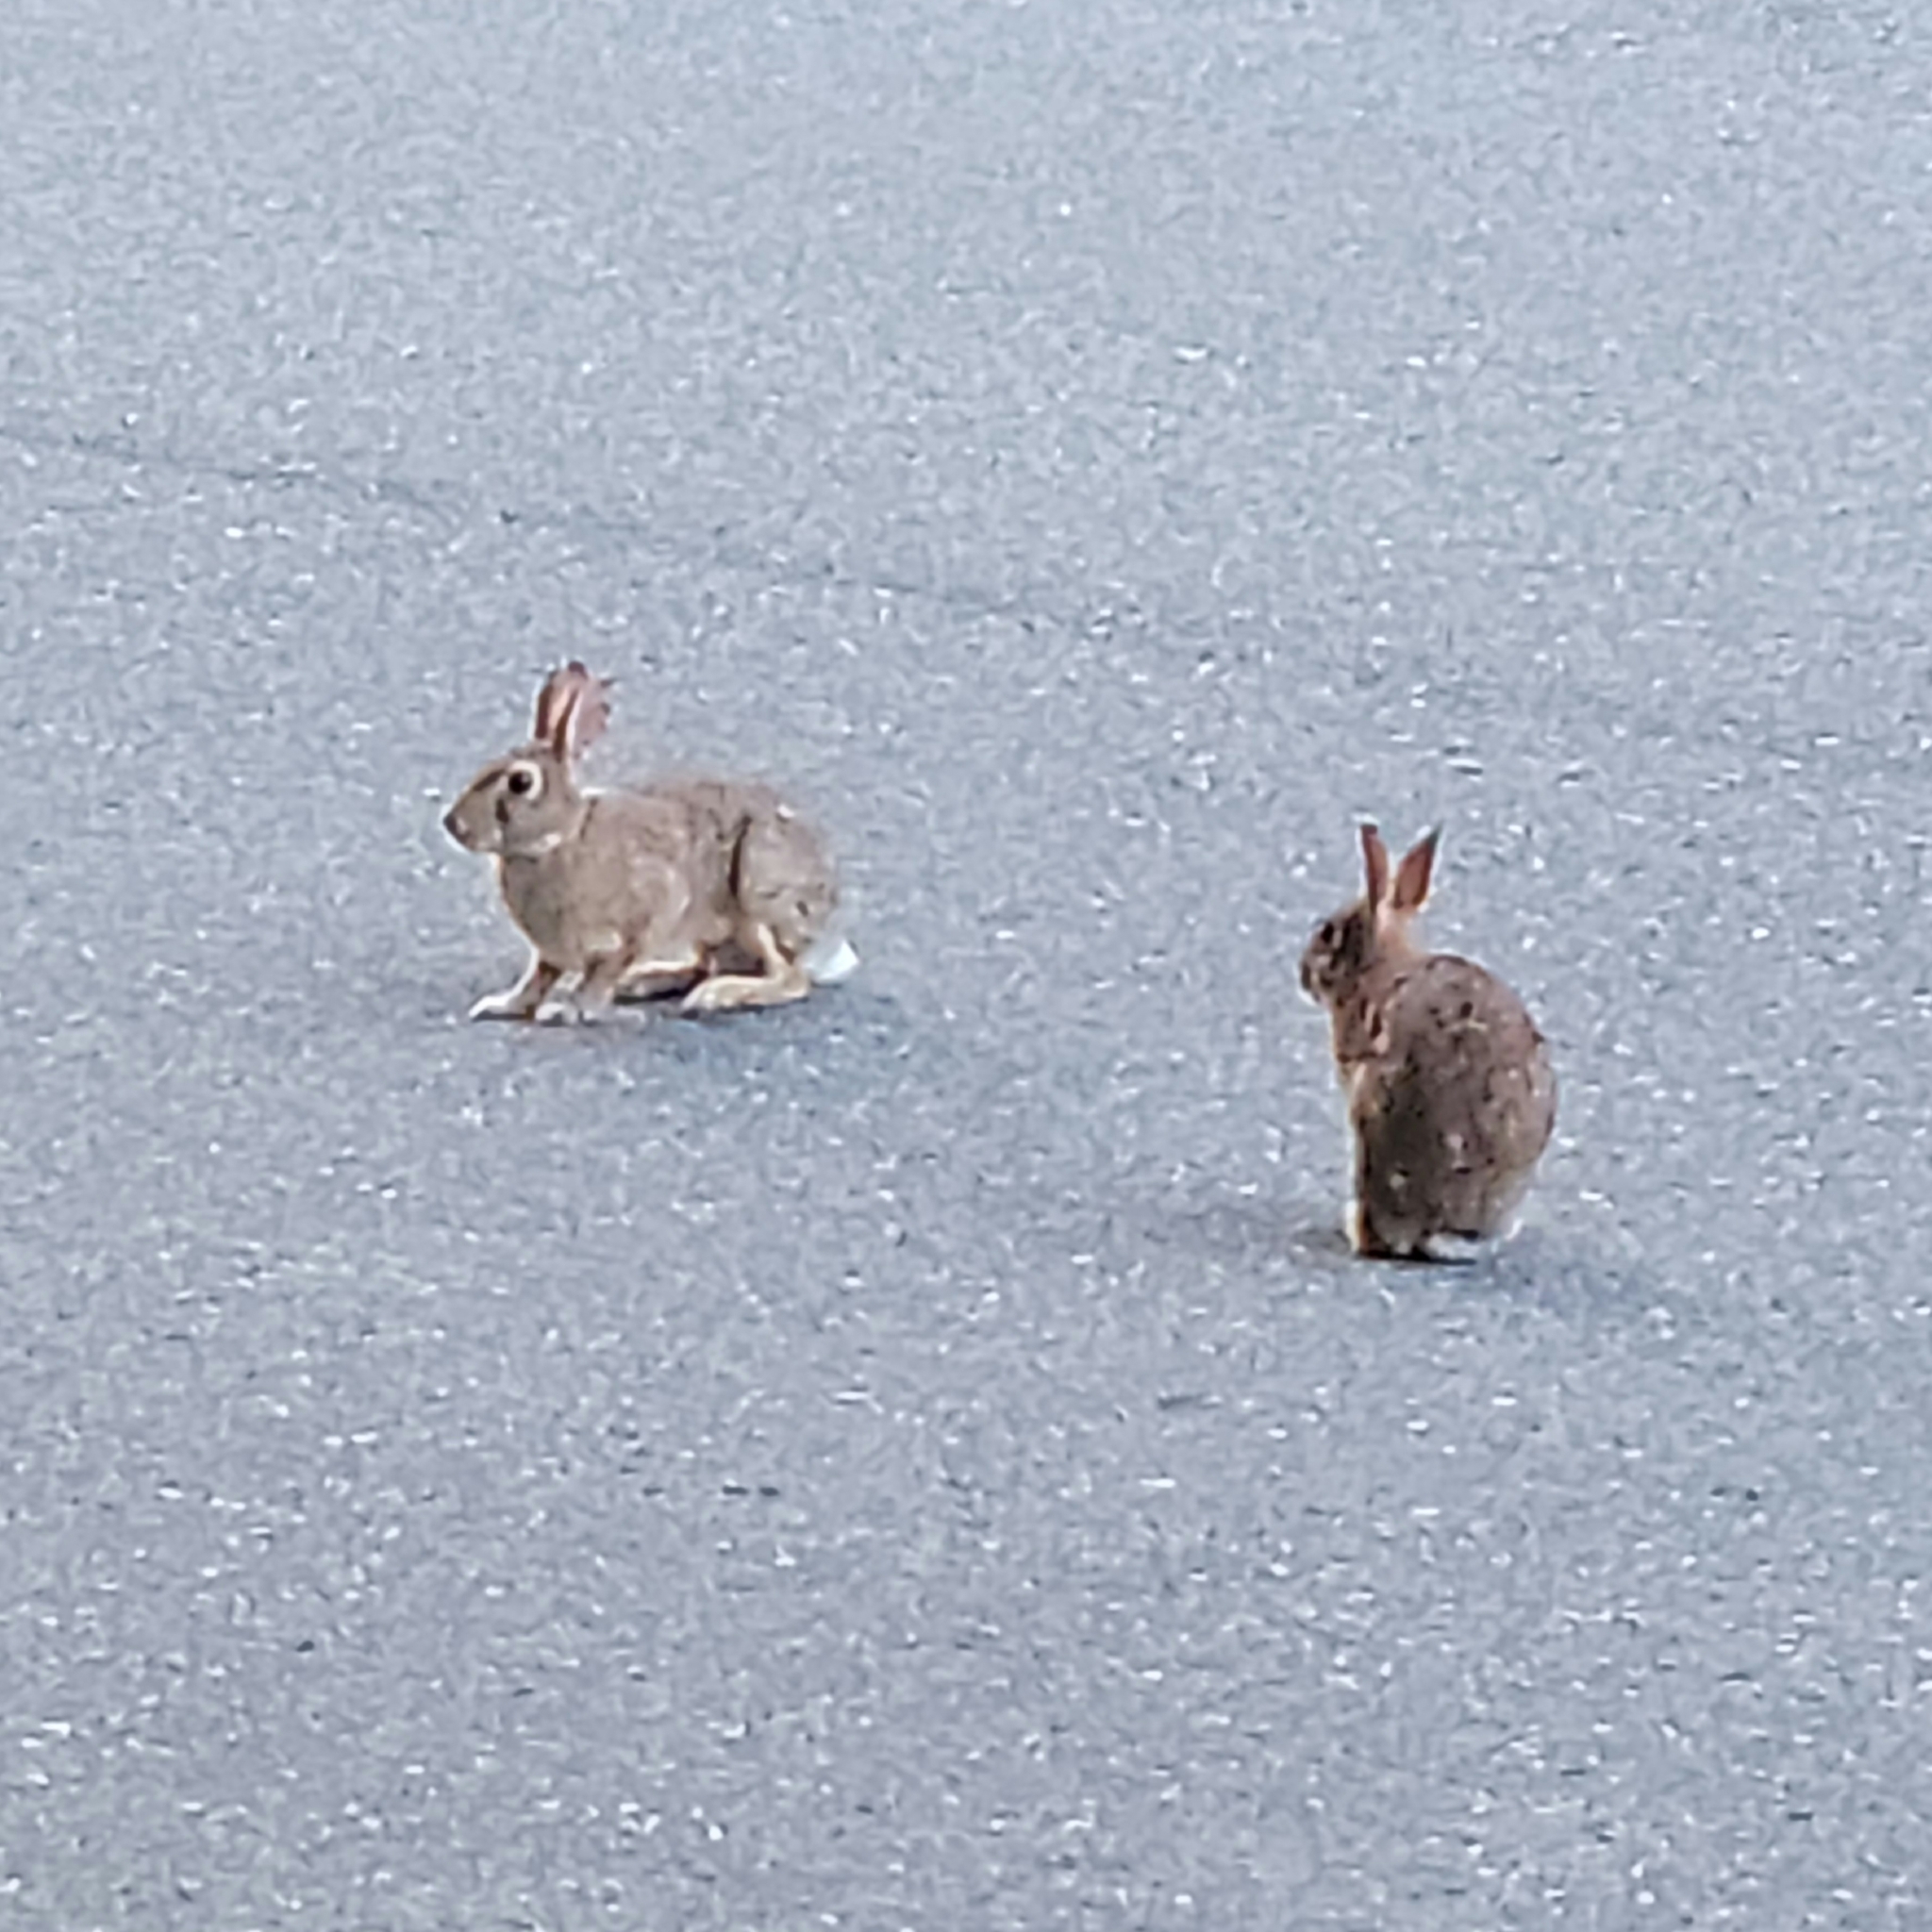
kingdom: Animalia
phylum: Chordata
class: Mammalia
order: Lagomorpha
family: Leporidae
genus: Sylvilagus
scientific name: Sylvilagus floridanus
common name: Eastern cottontail
